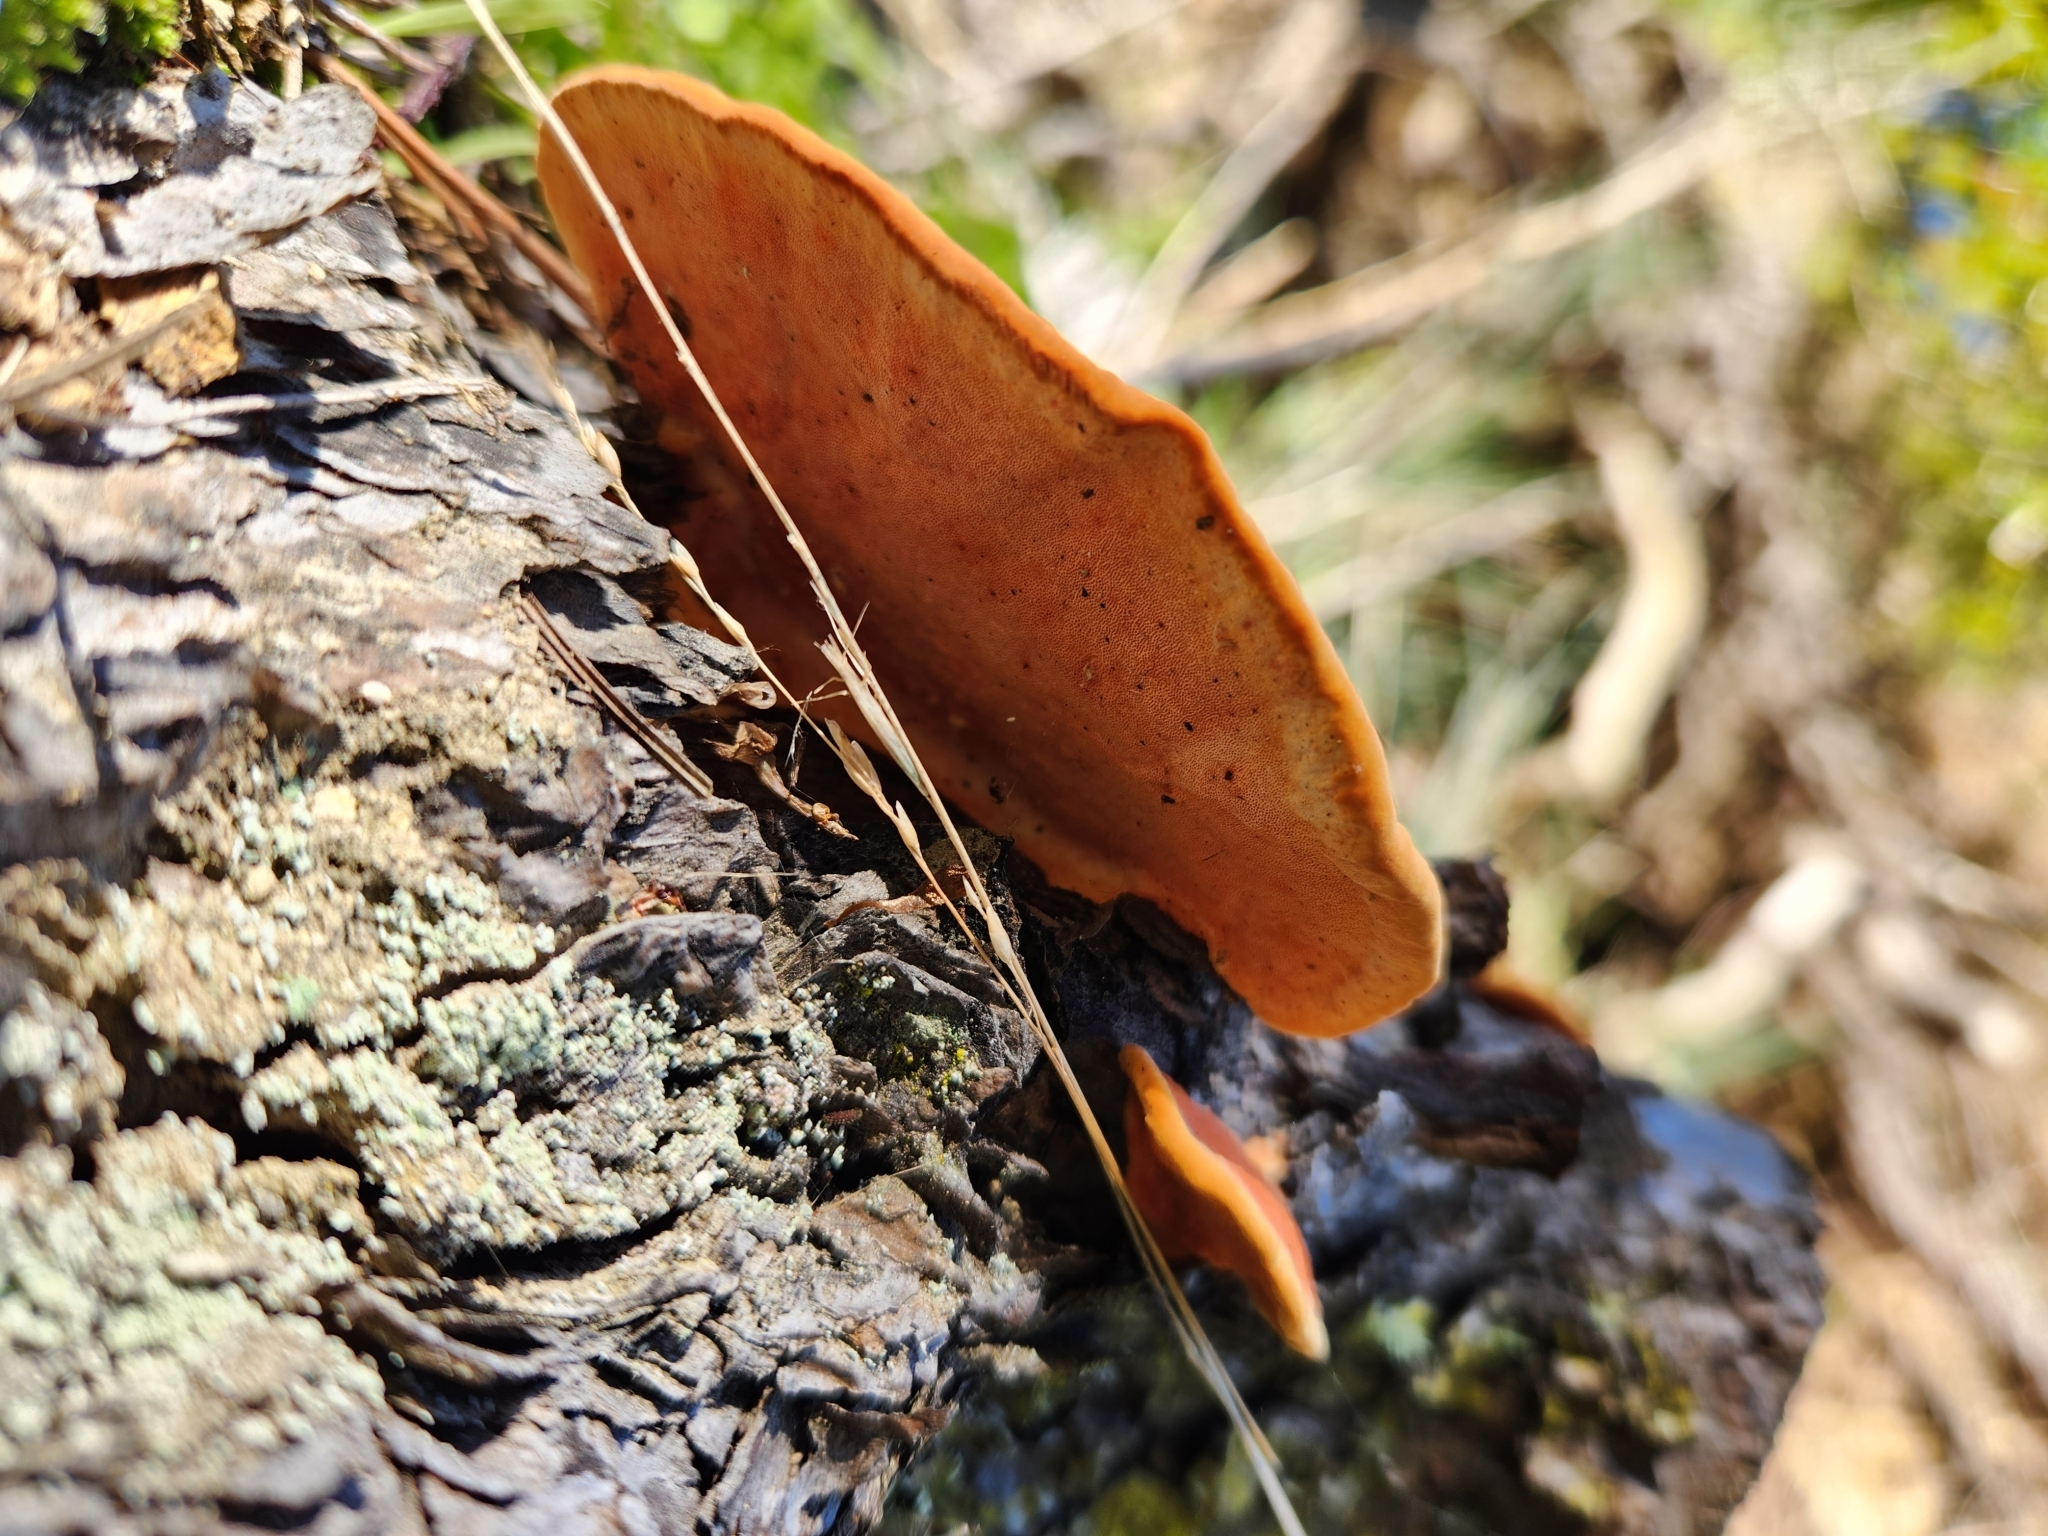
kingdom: Fungi
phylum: Basidiomycota
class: Agaricomycetes
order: Polyporales
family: Polyporaceae
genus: Trametes
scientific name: Trametes coccinea
